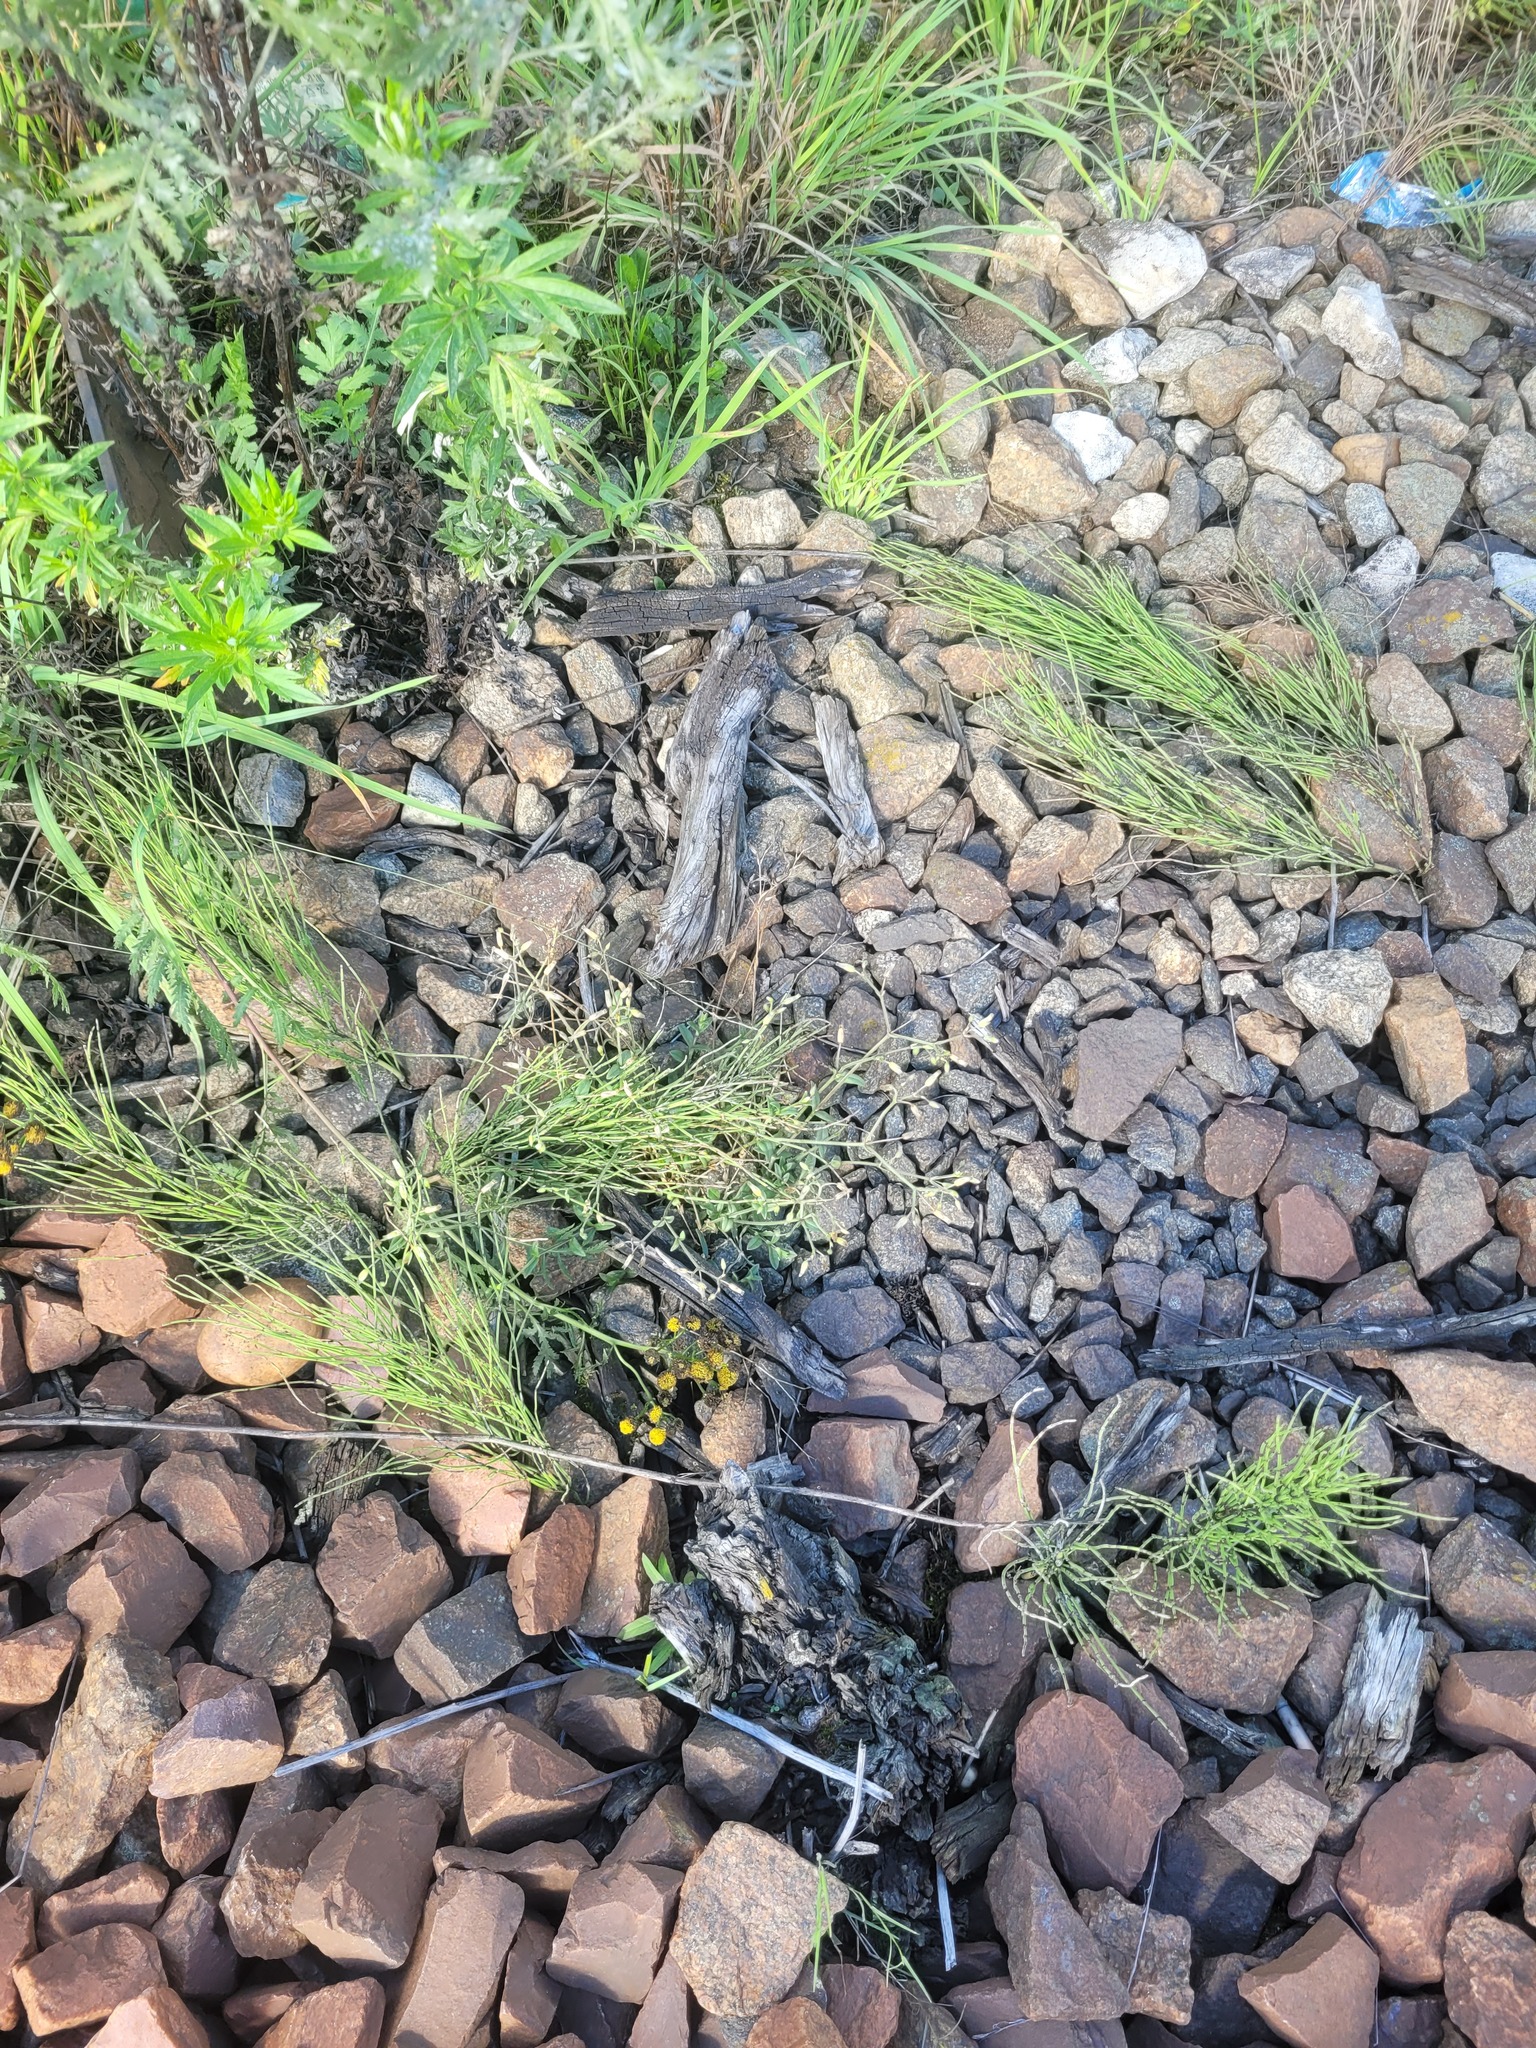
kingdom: Plantae
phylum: Tracheophyta
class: Polypodiopsida
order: Equisetales
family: Equisetaceae
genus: Equisetum
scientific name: Equisetum arvense
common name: Field horsetail
